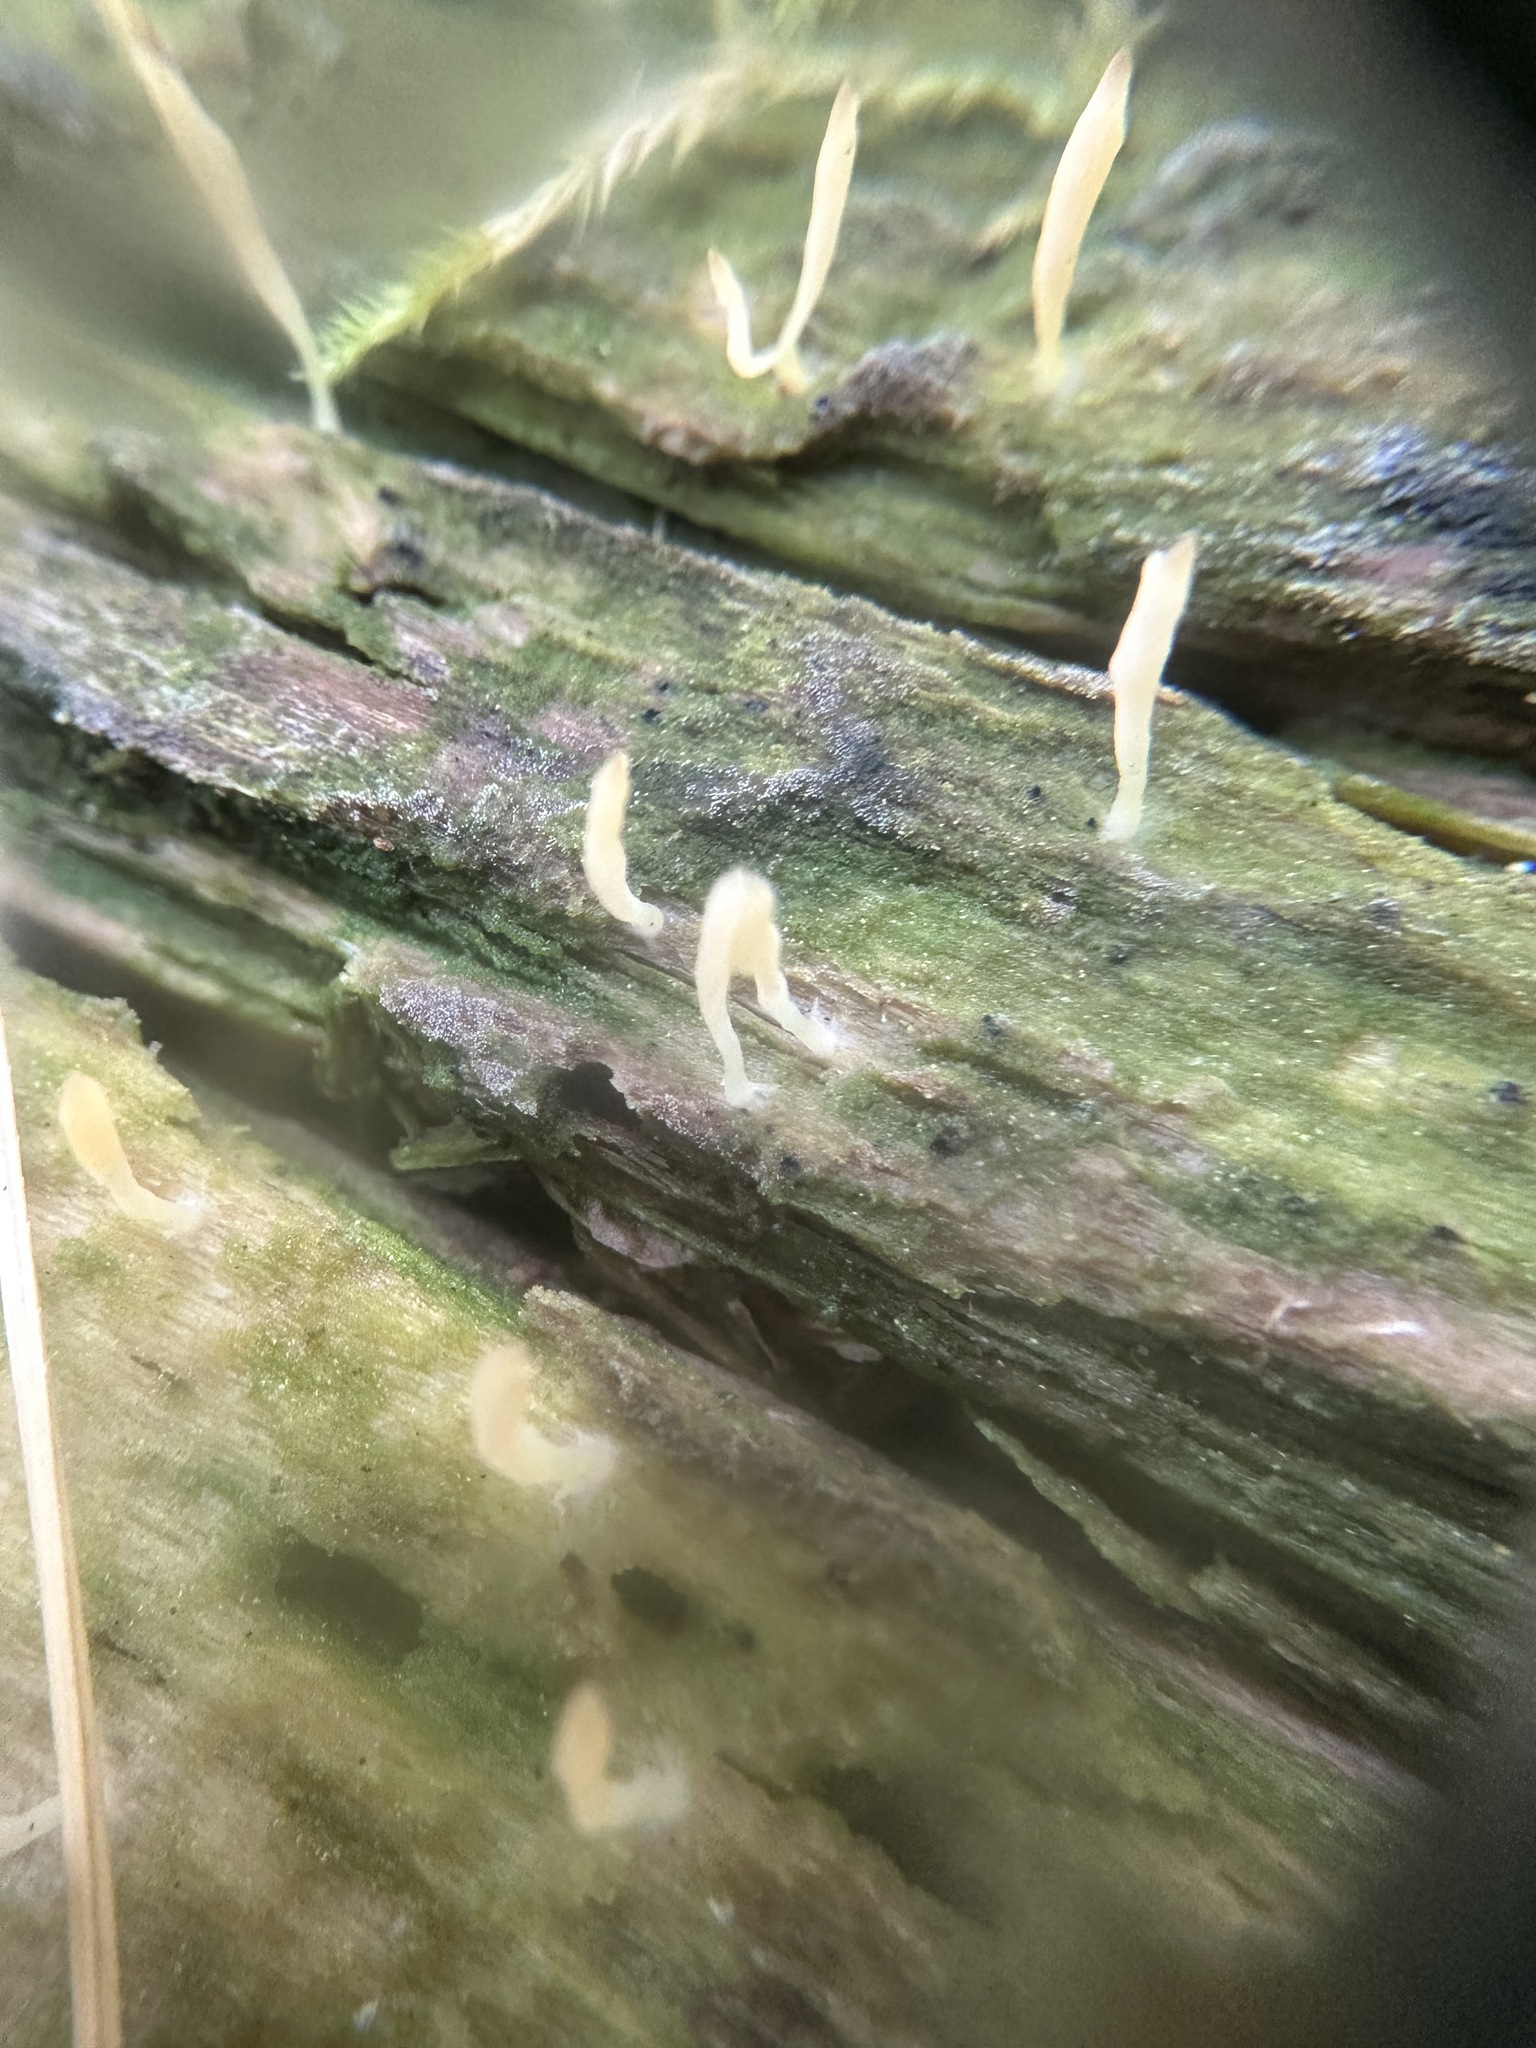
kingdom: Fungi
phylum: Basidiomycota
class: Agaricomycetes
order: Cantharellales
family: Hydnaceae
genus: Multiclavula
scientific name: Multiclavula mucida
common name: White green-algae coral
